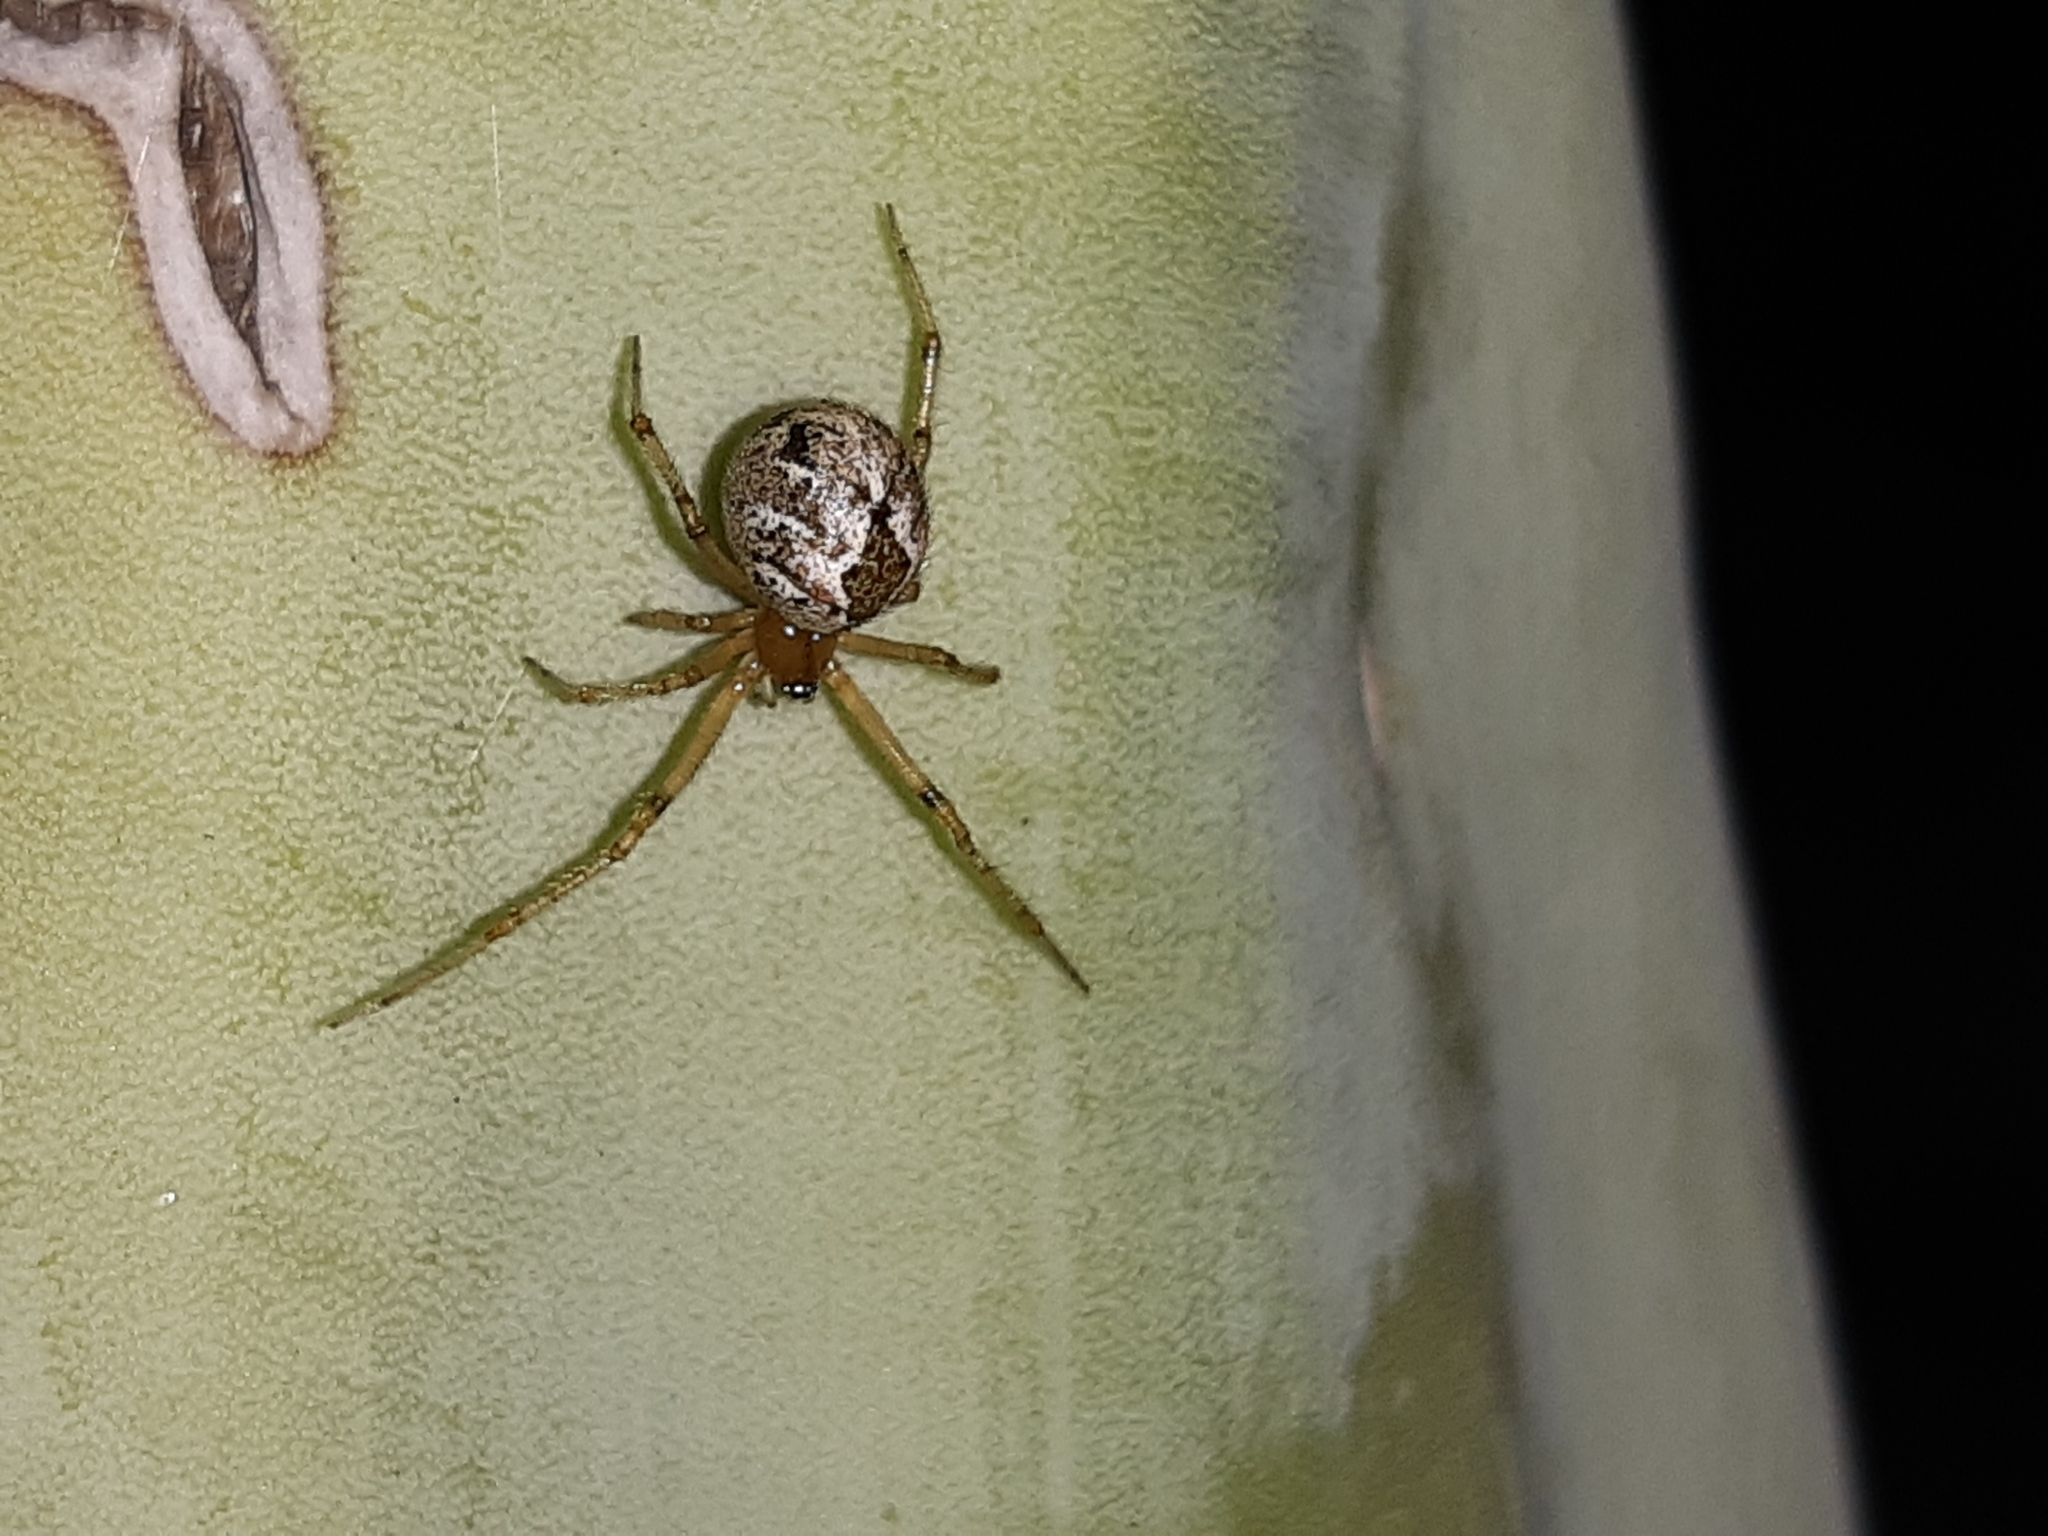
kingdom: Animalia
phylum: Arthropoda
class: Arachnida
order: Araneae
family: Theridiidae
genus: Cryptachaea
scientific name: Cryptachaea veruculata
